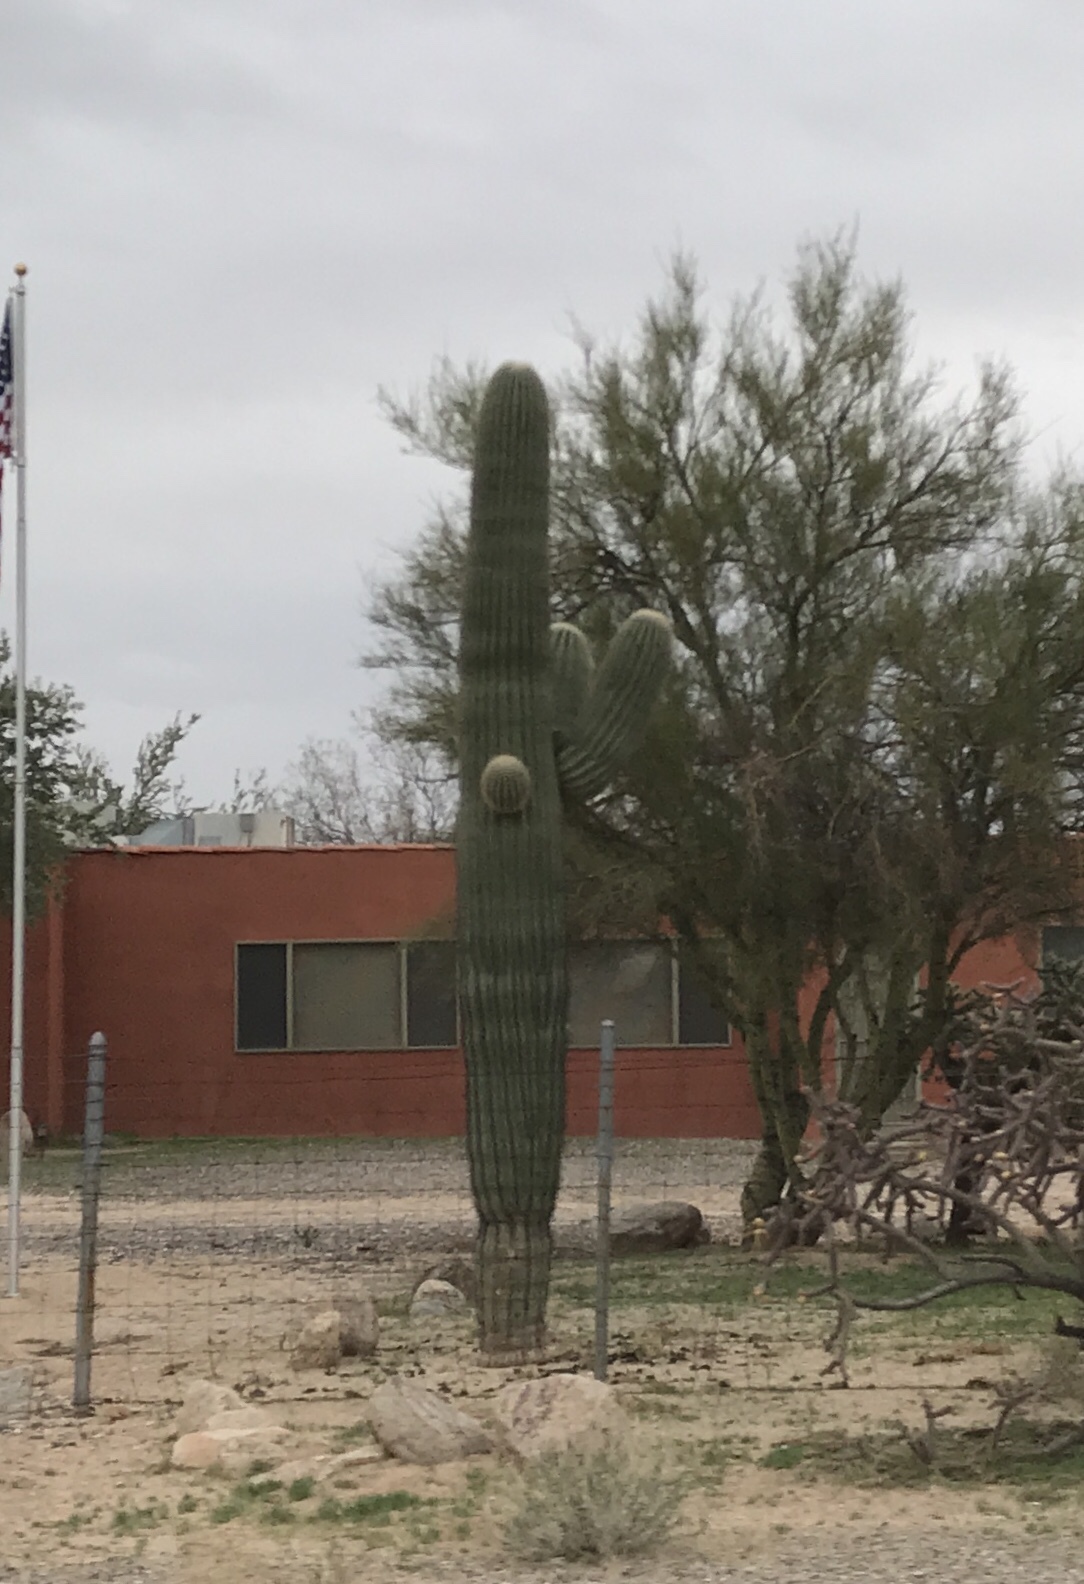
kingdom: Plantae
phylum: Tracheophyta
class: Magnoliopsida
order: Caryophyllales
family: Cactaceae
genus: Carnegiea
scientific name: Carnegiea gigantea
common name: Saguaro
